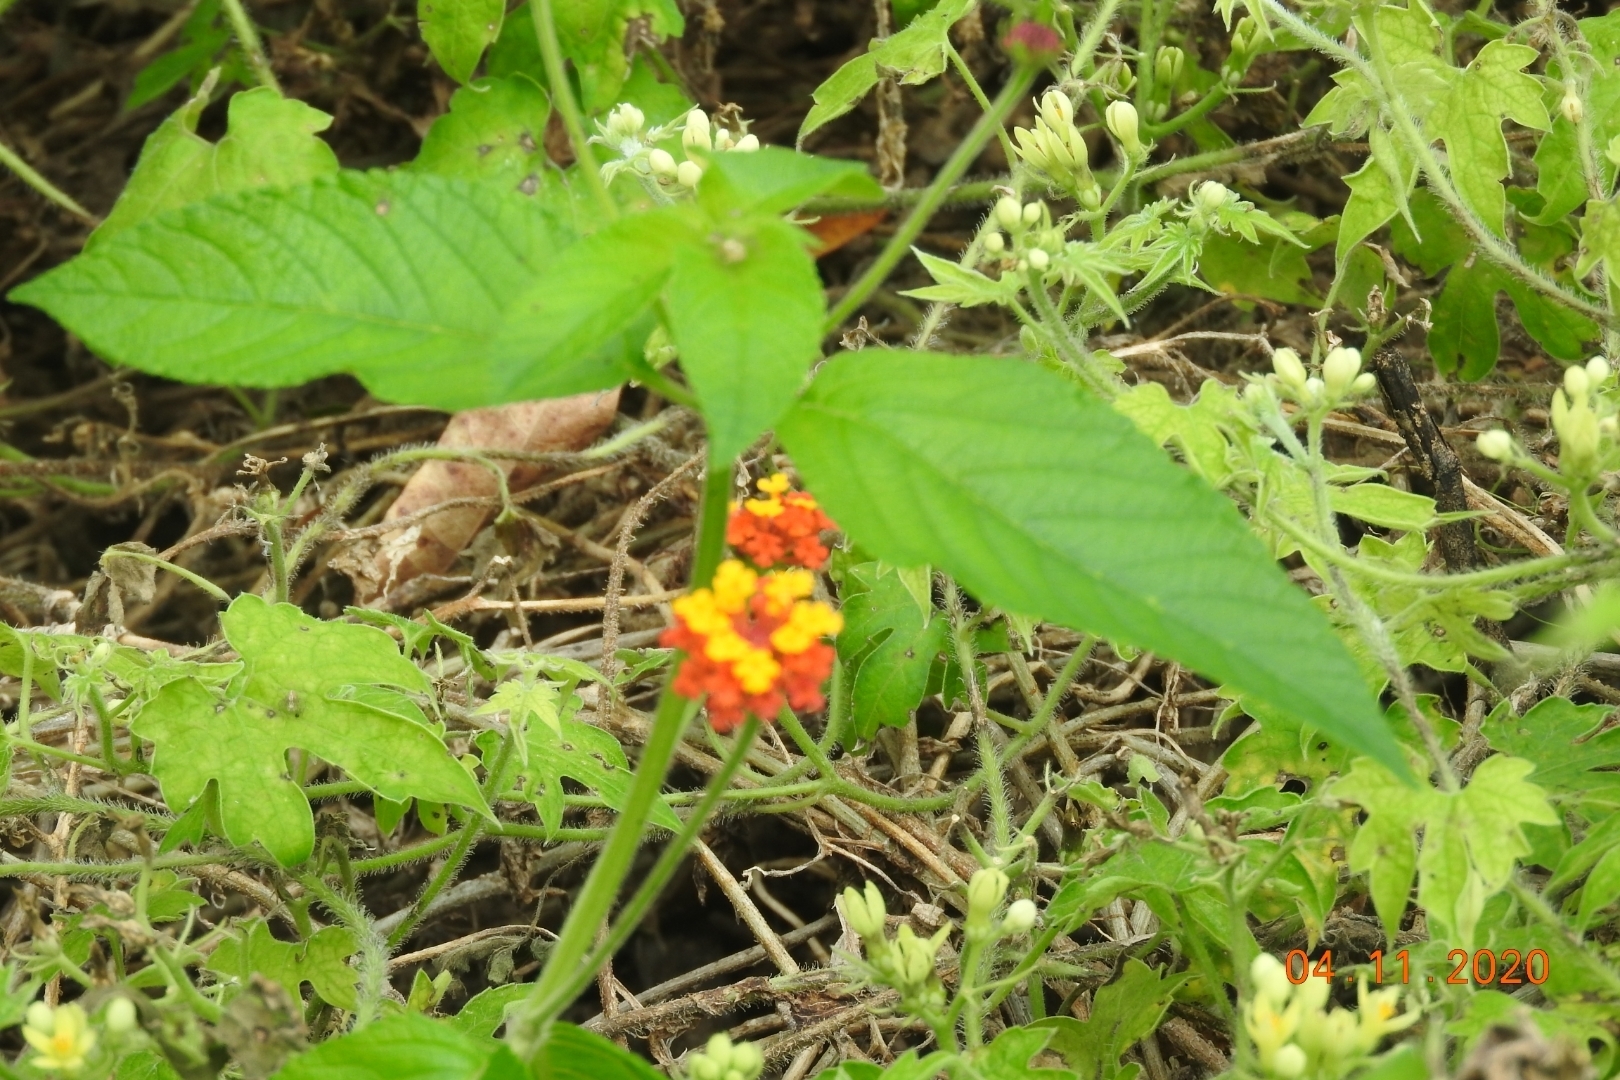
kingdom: Plantae
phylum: Tracheophyta
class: Magnoliopsida
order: Lamiales
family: Verbenaceae
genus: Lantana
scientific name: Lantana horrida
